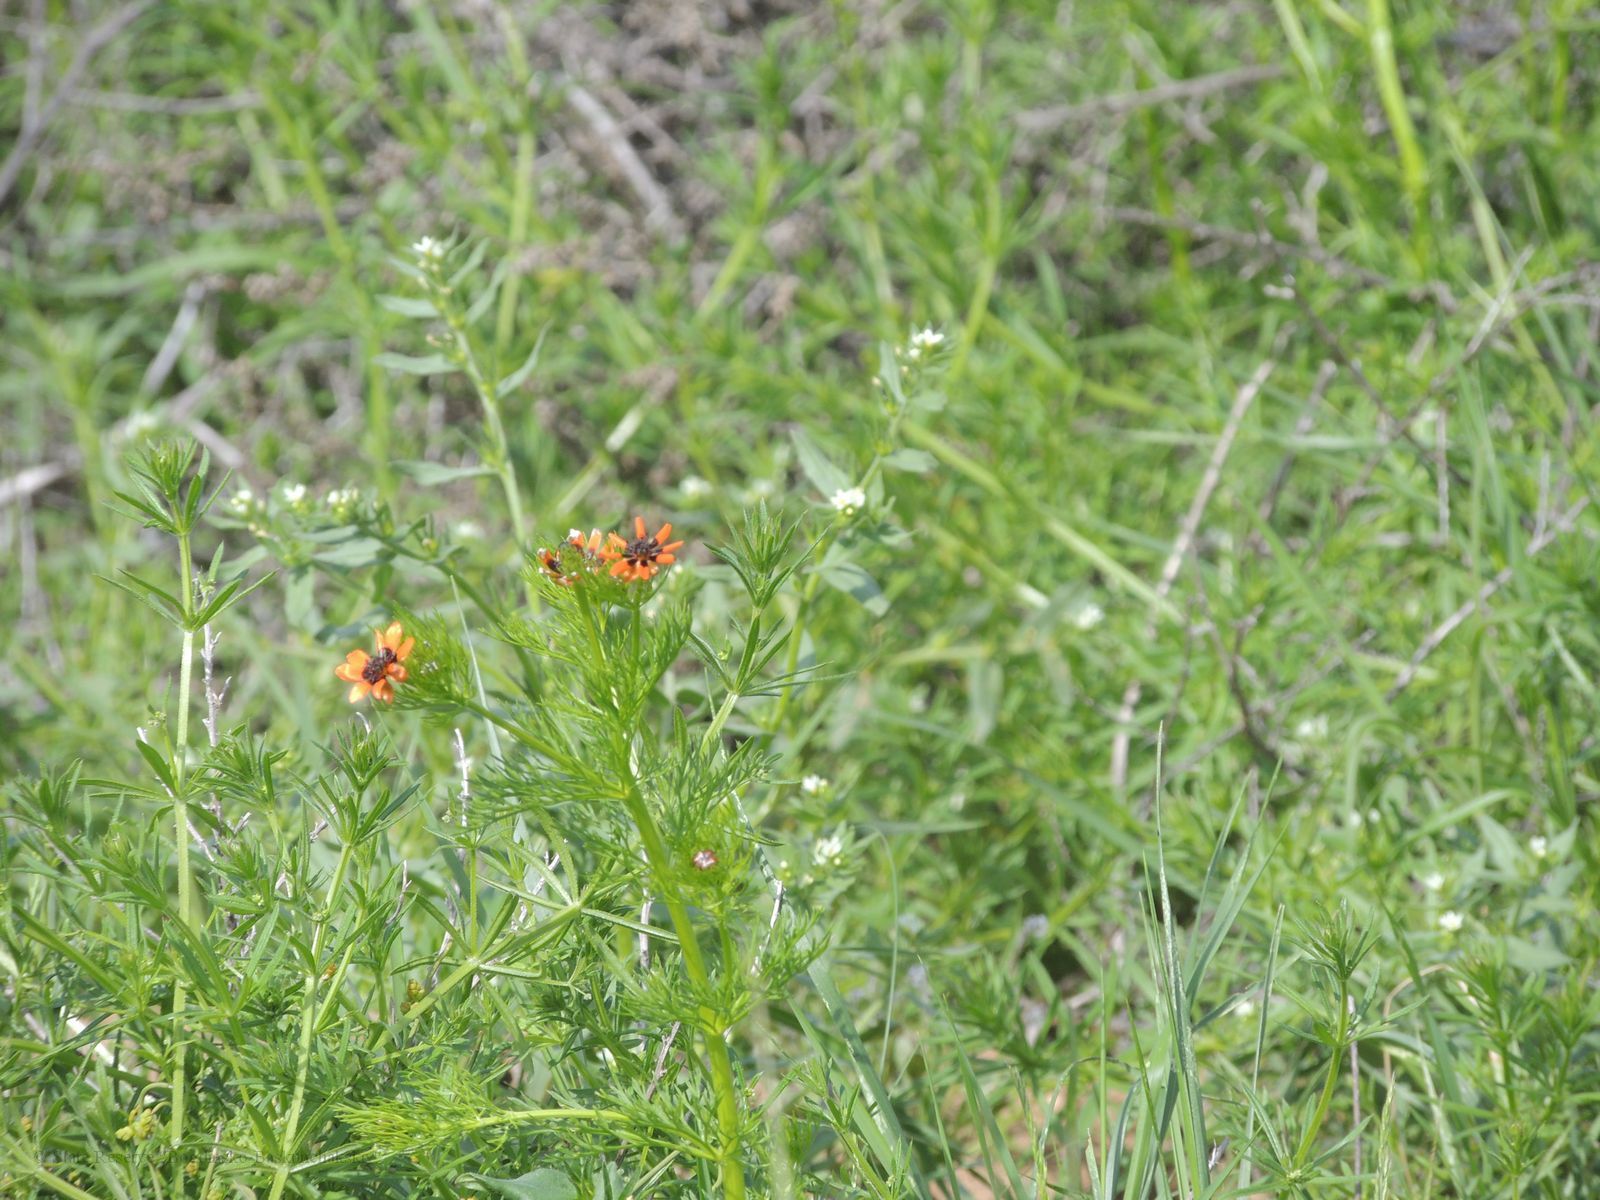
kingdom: Plantae
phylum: Tracheophyta
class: Magnoliopsida
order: Ranunculales
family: Ranunculaceae
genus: Adonis
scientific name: Adonis aestivalis
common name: Summer pheasant's-eye
